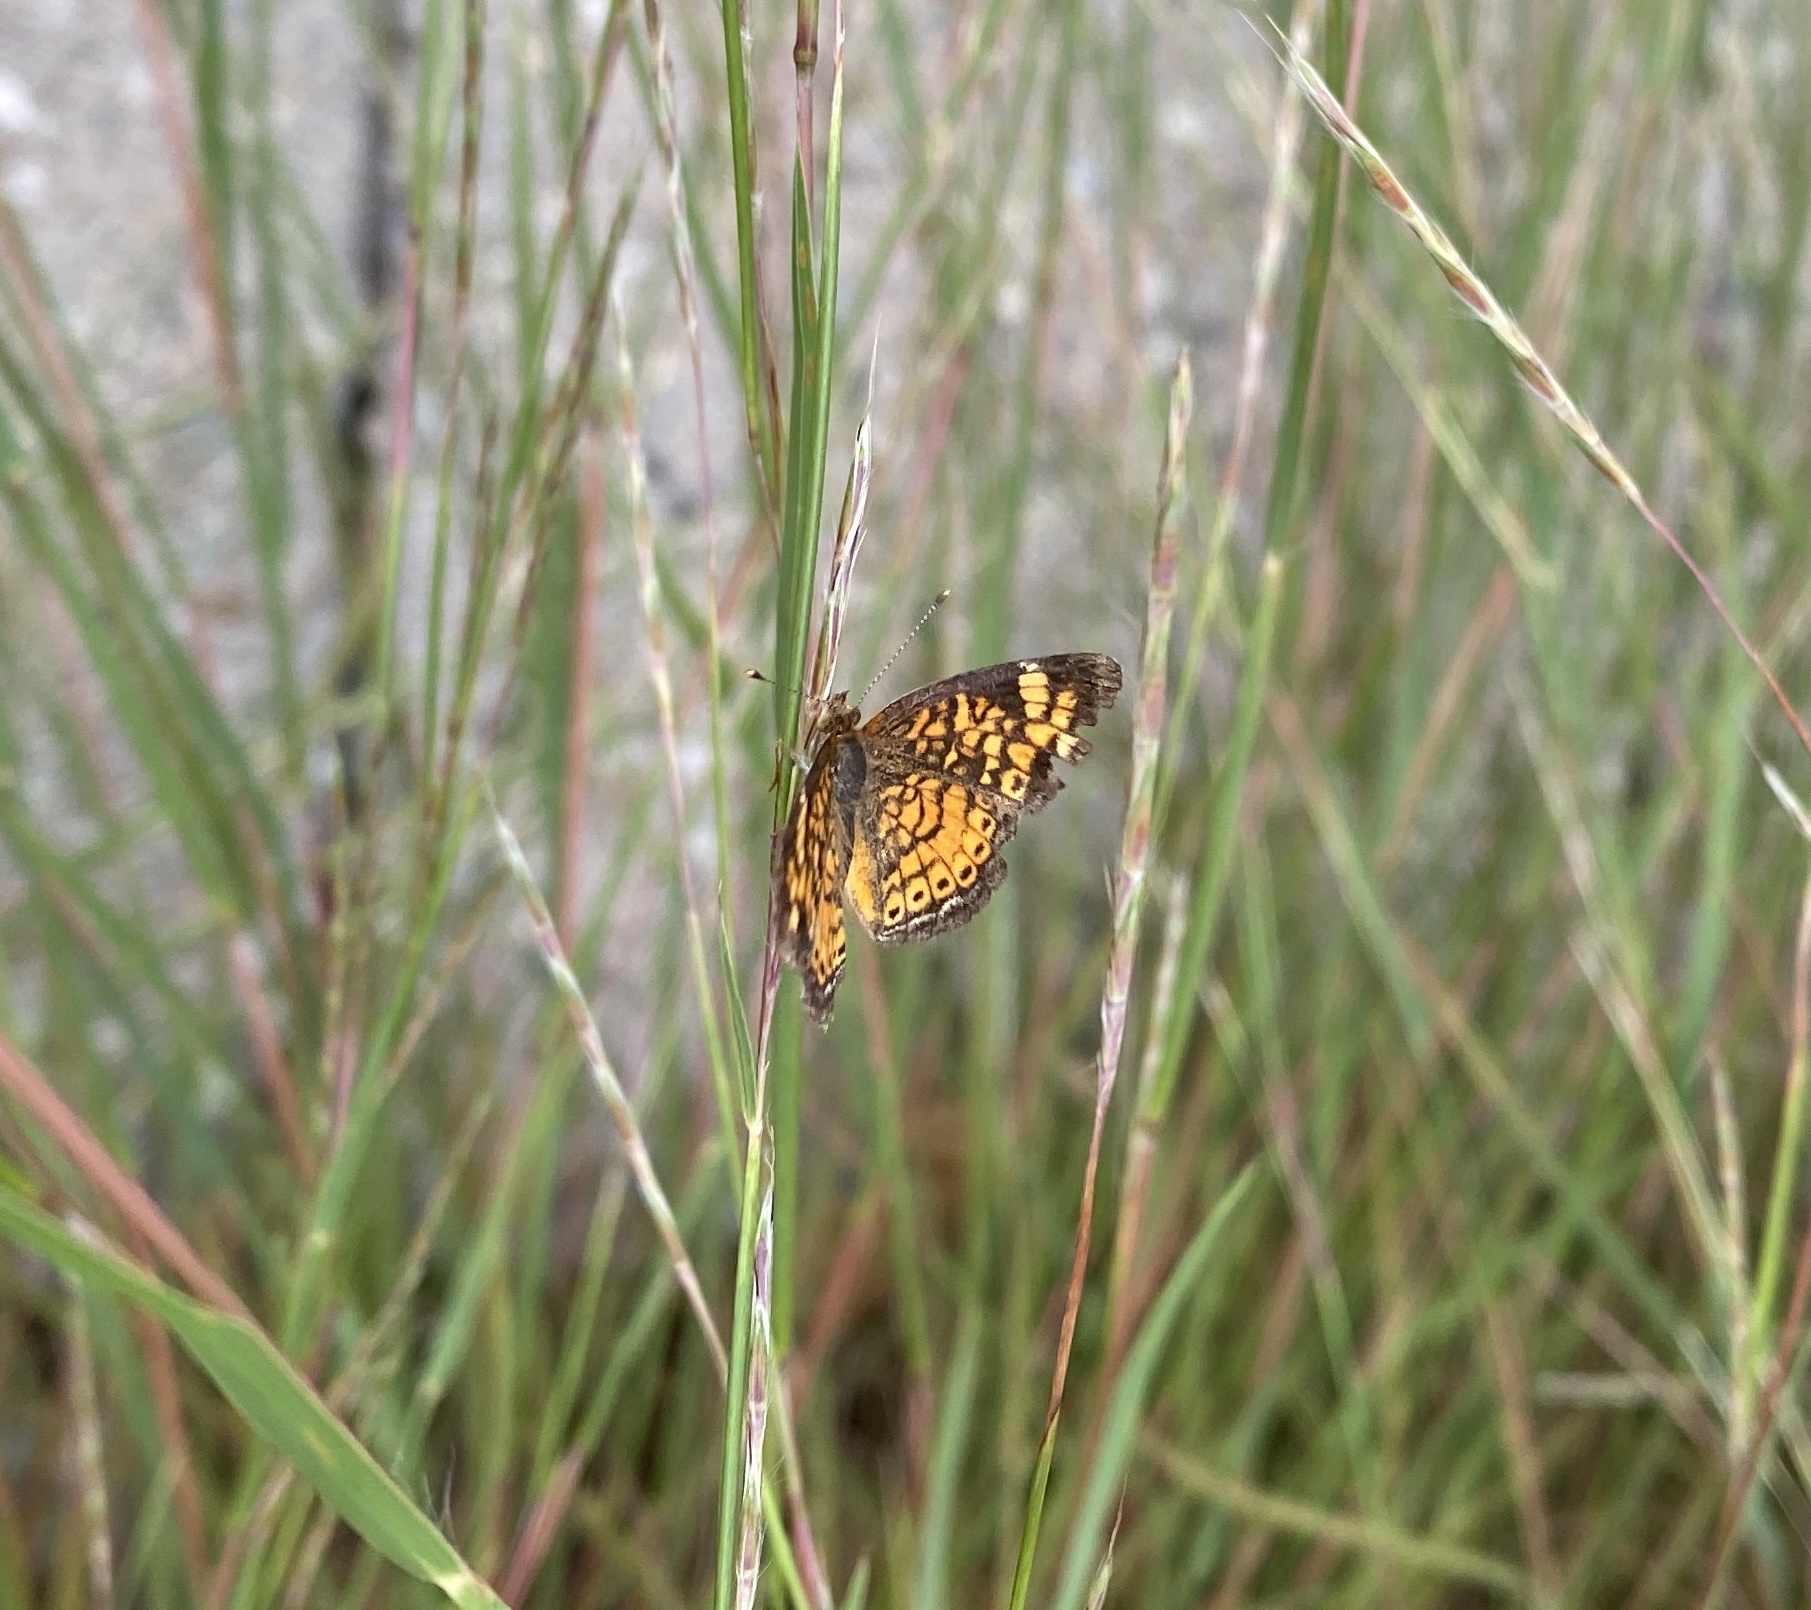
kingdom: Animalia
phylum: Arthropoda
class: Insecta
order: Lepidoptera
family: Nymphalidae
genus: Phyciodes
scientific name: Phyciodes tharos
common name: Pearl crescent
